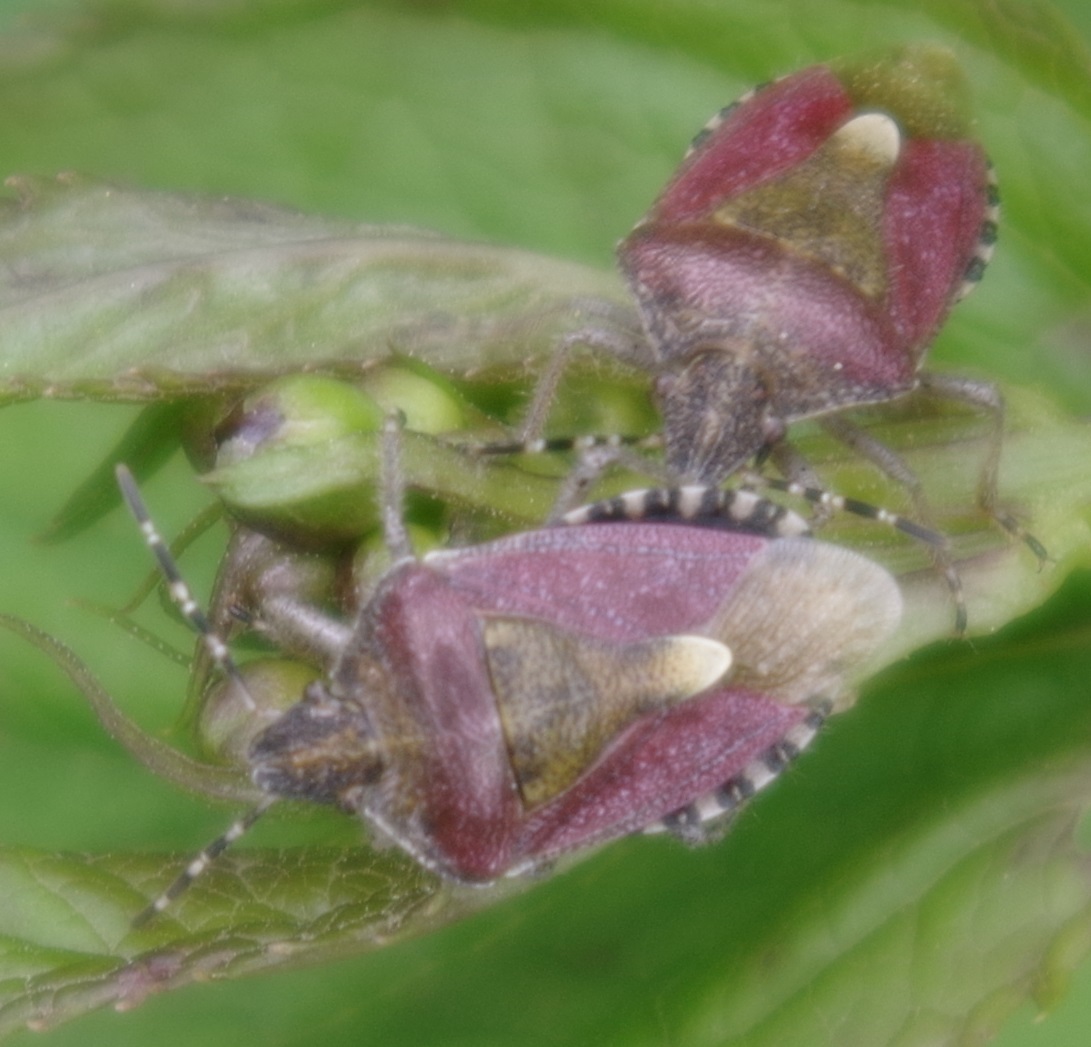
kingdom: Animalia
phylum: Arthropoda
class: Insecta
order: Hemiptera
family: Pentatomidae
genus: Dolycoris
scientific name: Dolycoris baccarum
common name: Sloe bug
